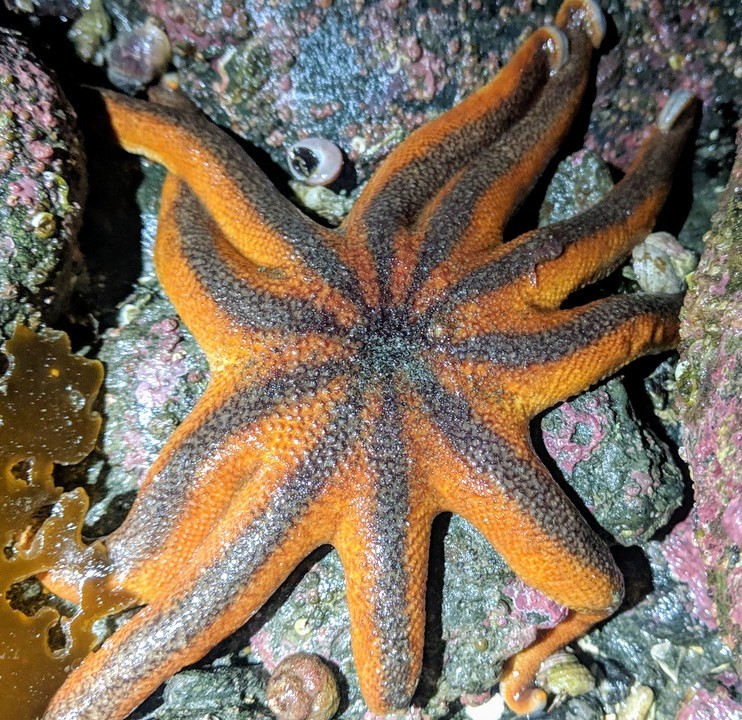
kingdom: Animalia
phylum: Echinodermata
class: Asteroidea
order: Valvatida
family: Solasteridae
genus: Solaster
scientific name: Solaster stimpsoni
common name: Orange sun star
